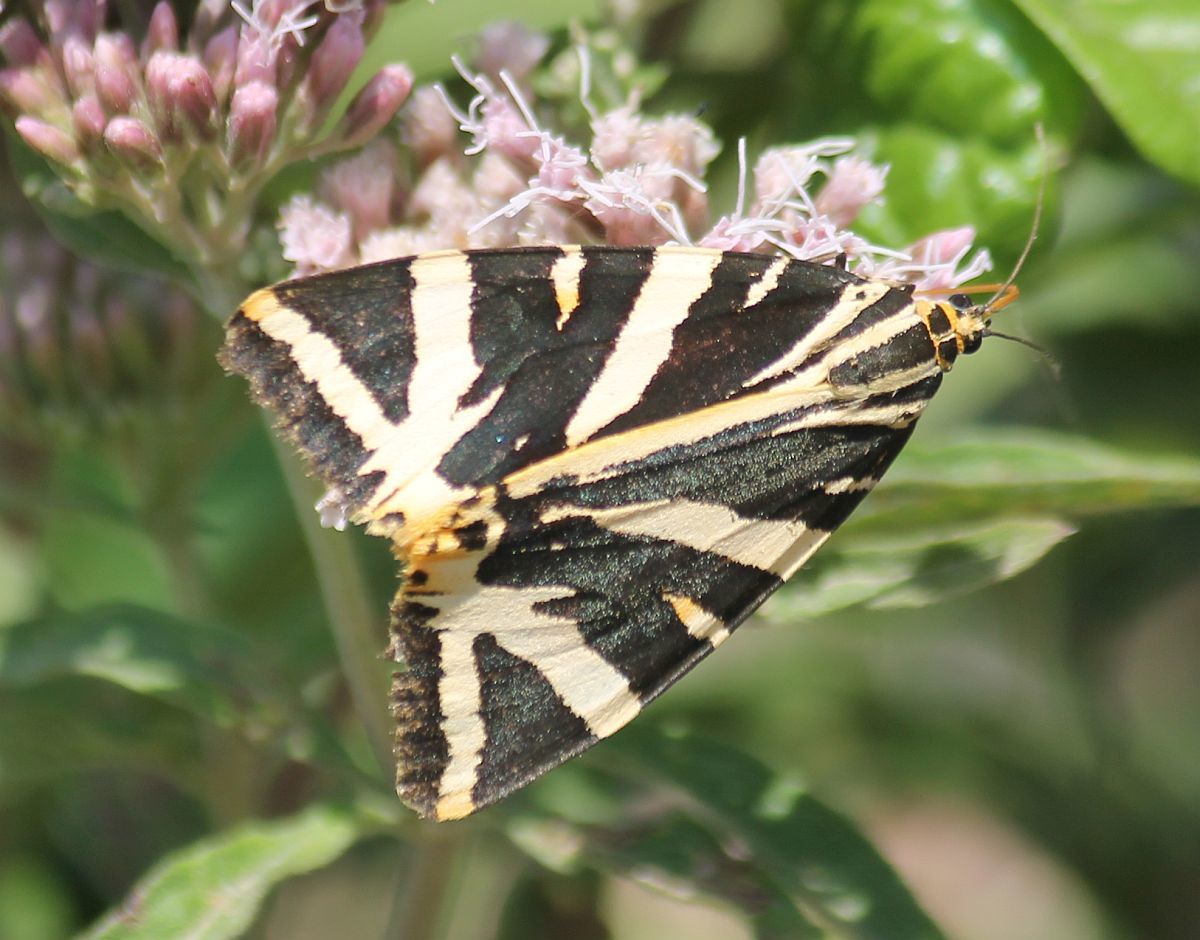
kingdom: Animalia
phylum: Arthropoda
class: Insecta
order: Lepidoptera
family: Erebidae
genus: Euplagia
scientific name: Euplagia quadripunctaria
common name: Jersey tiger
